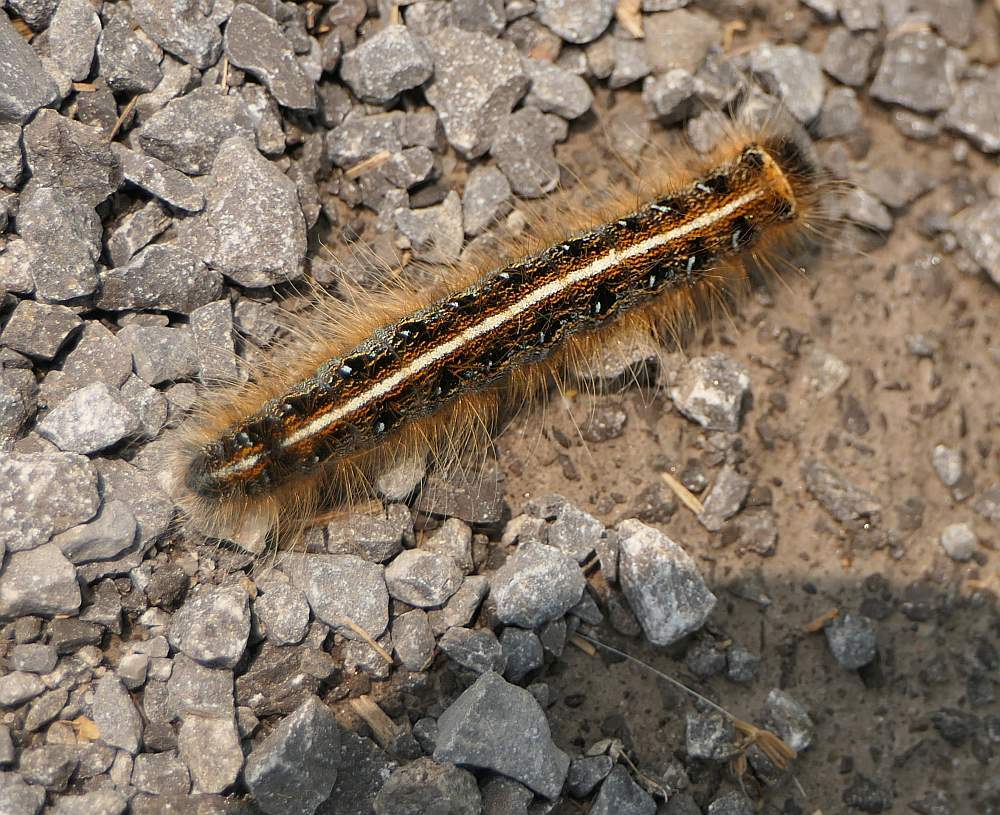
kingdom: Animalia
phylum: Arthropoda
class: Insecta
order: Lepidoptera
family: Lasiocampidae
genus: Malacosoma
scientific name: Malacosoma americana
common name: Eastern tent caterpillar moth
